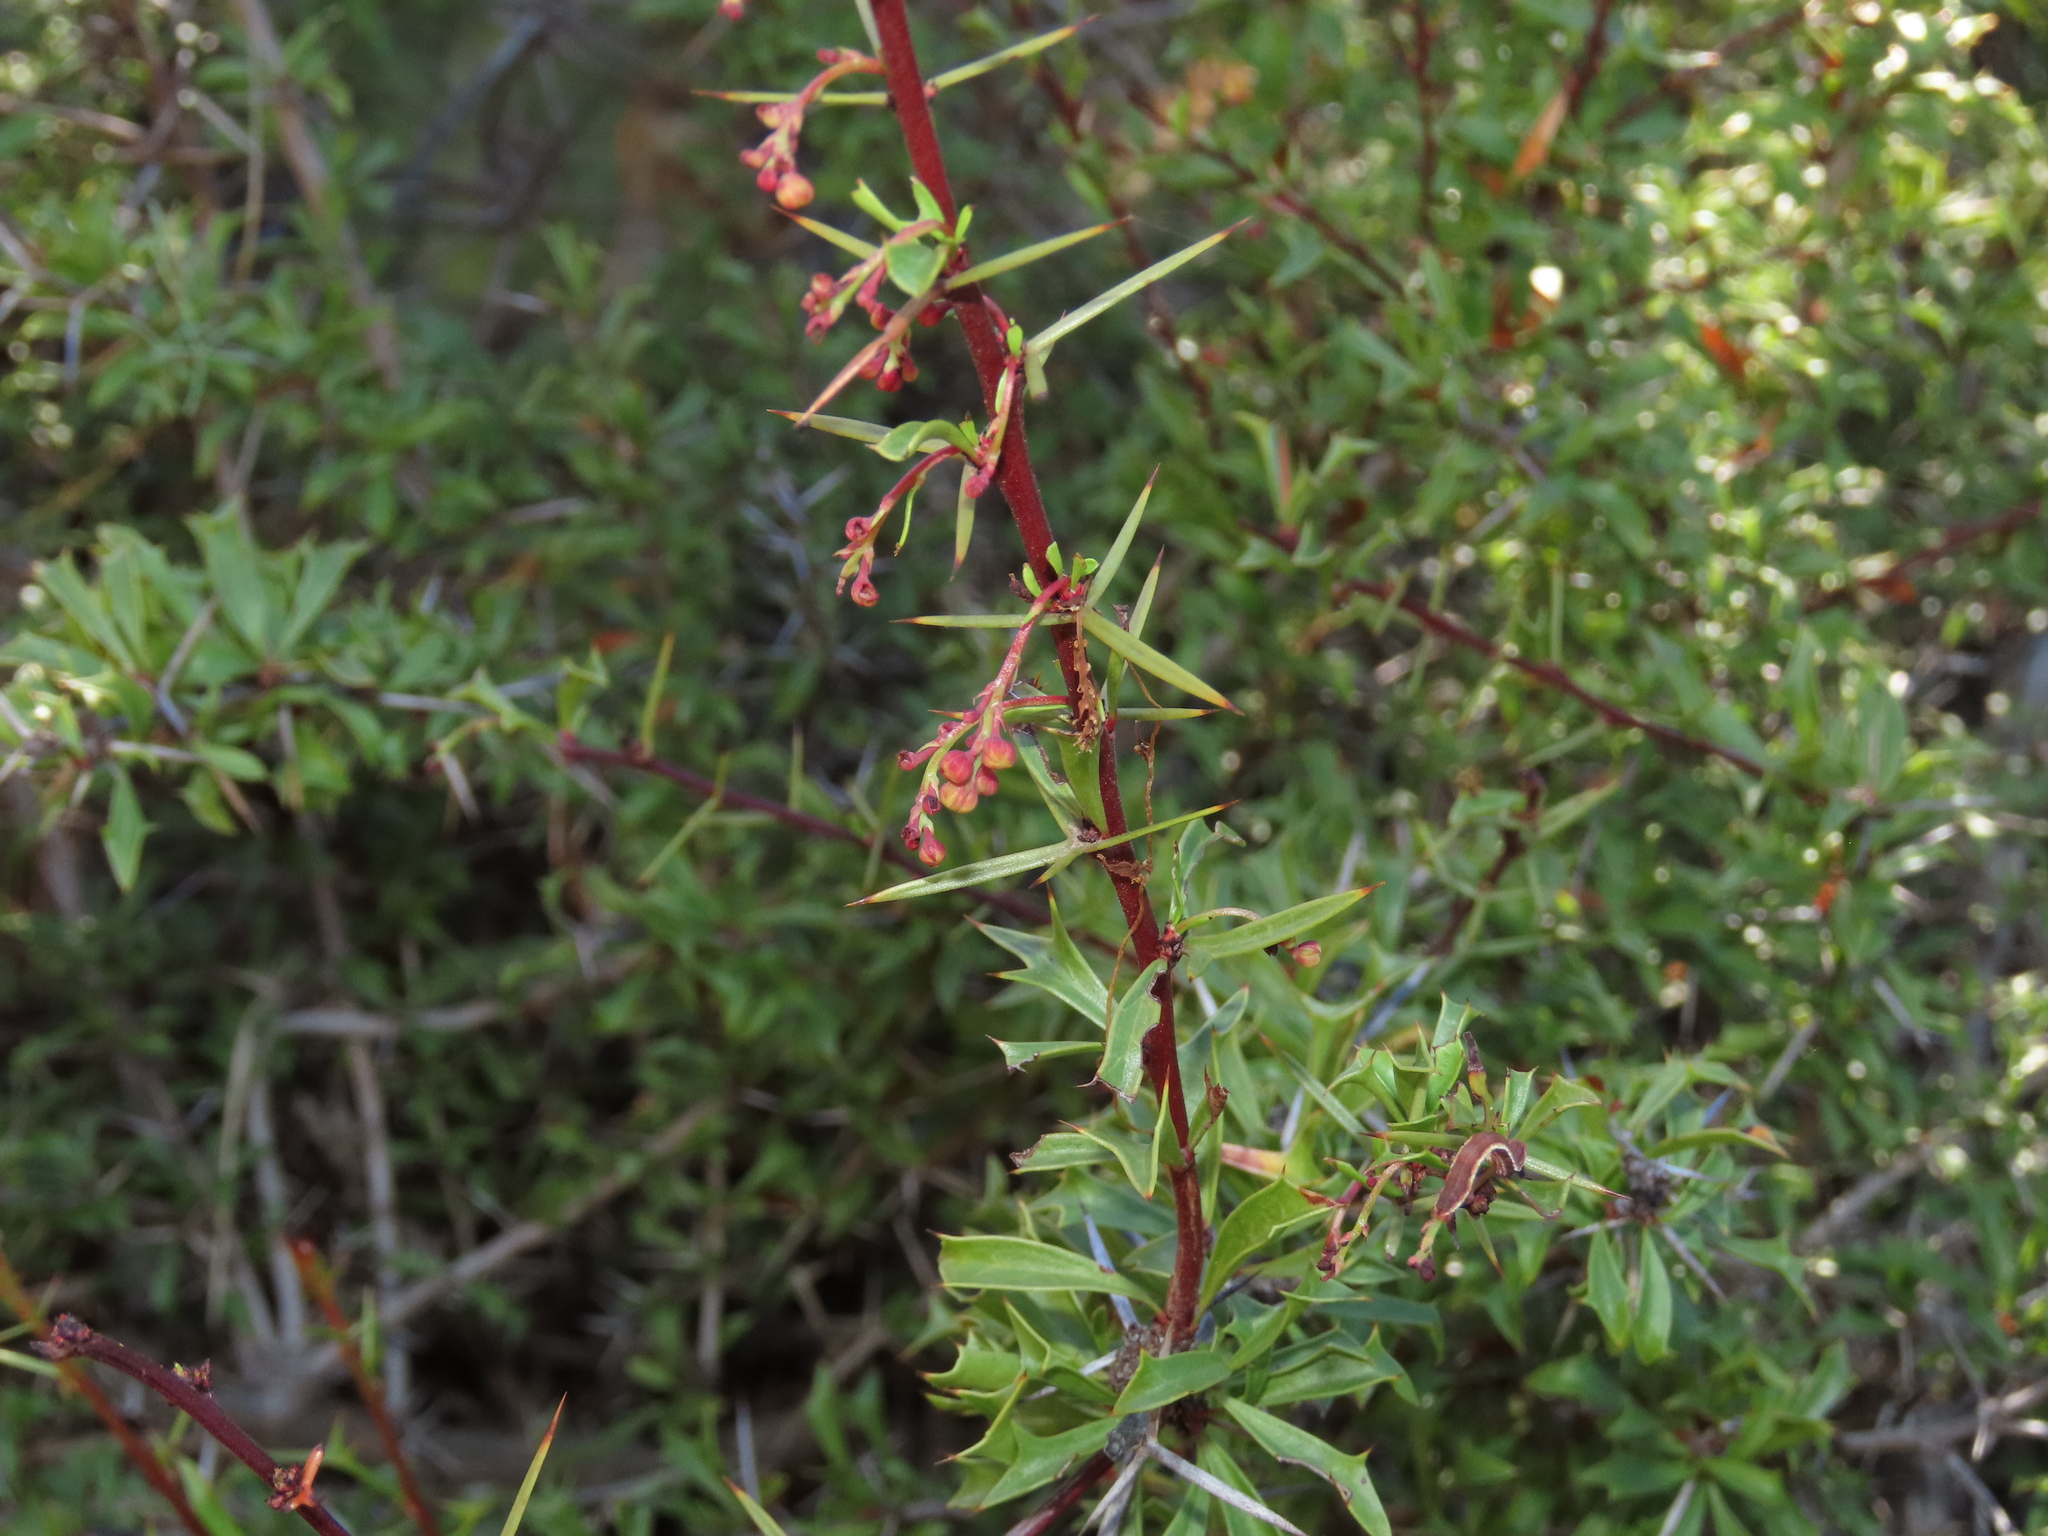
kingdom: Plantae
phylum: Tracheophyta
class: Magnoliopsida
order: Ranunculales
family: Berberidaceae
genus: Berberis
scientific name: Berberis glomerata
